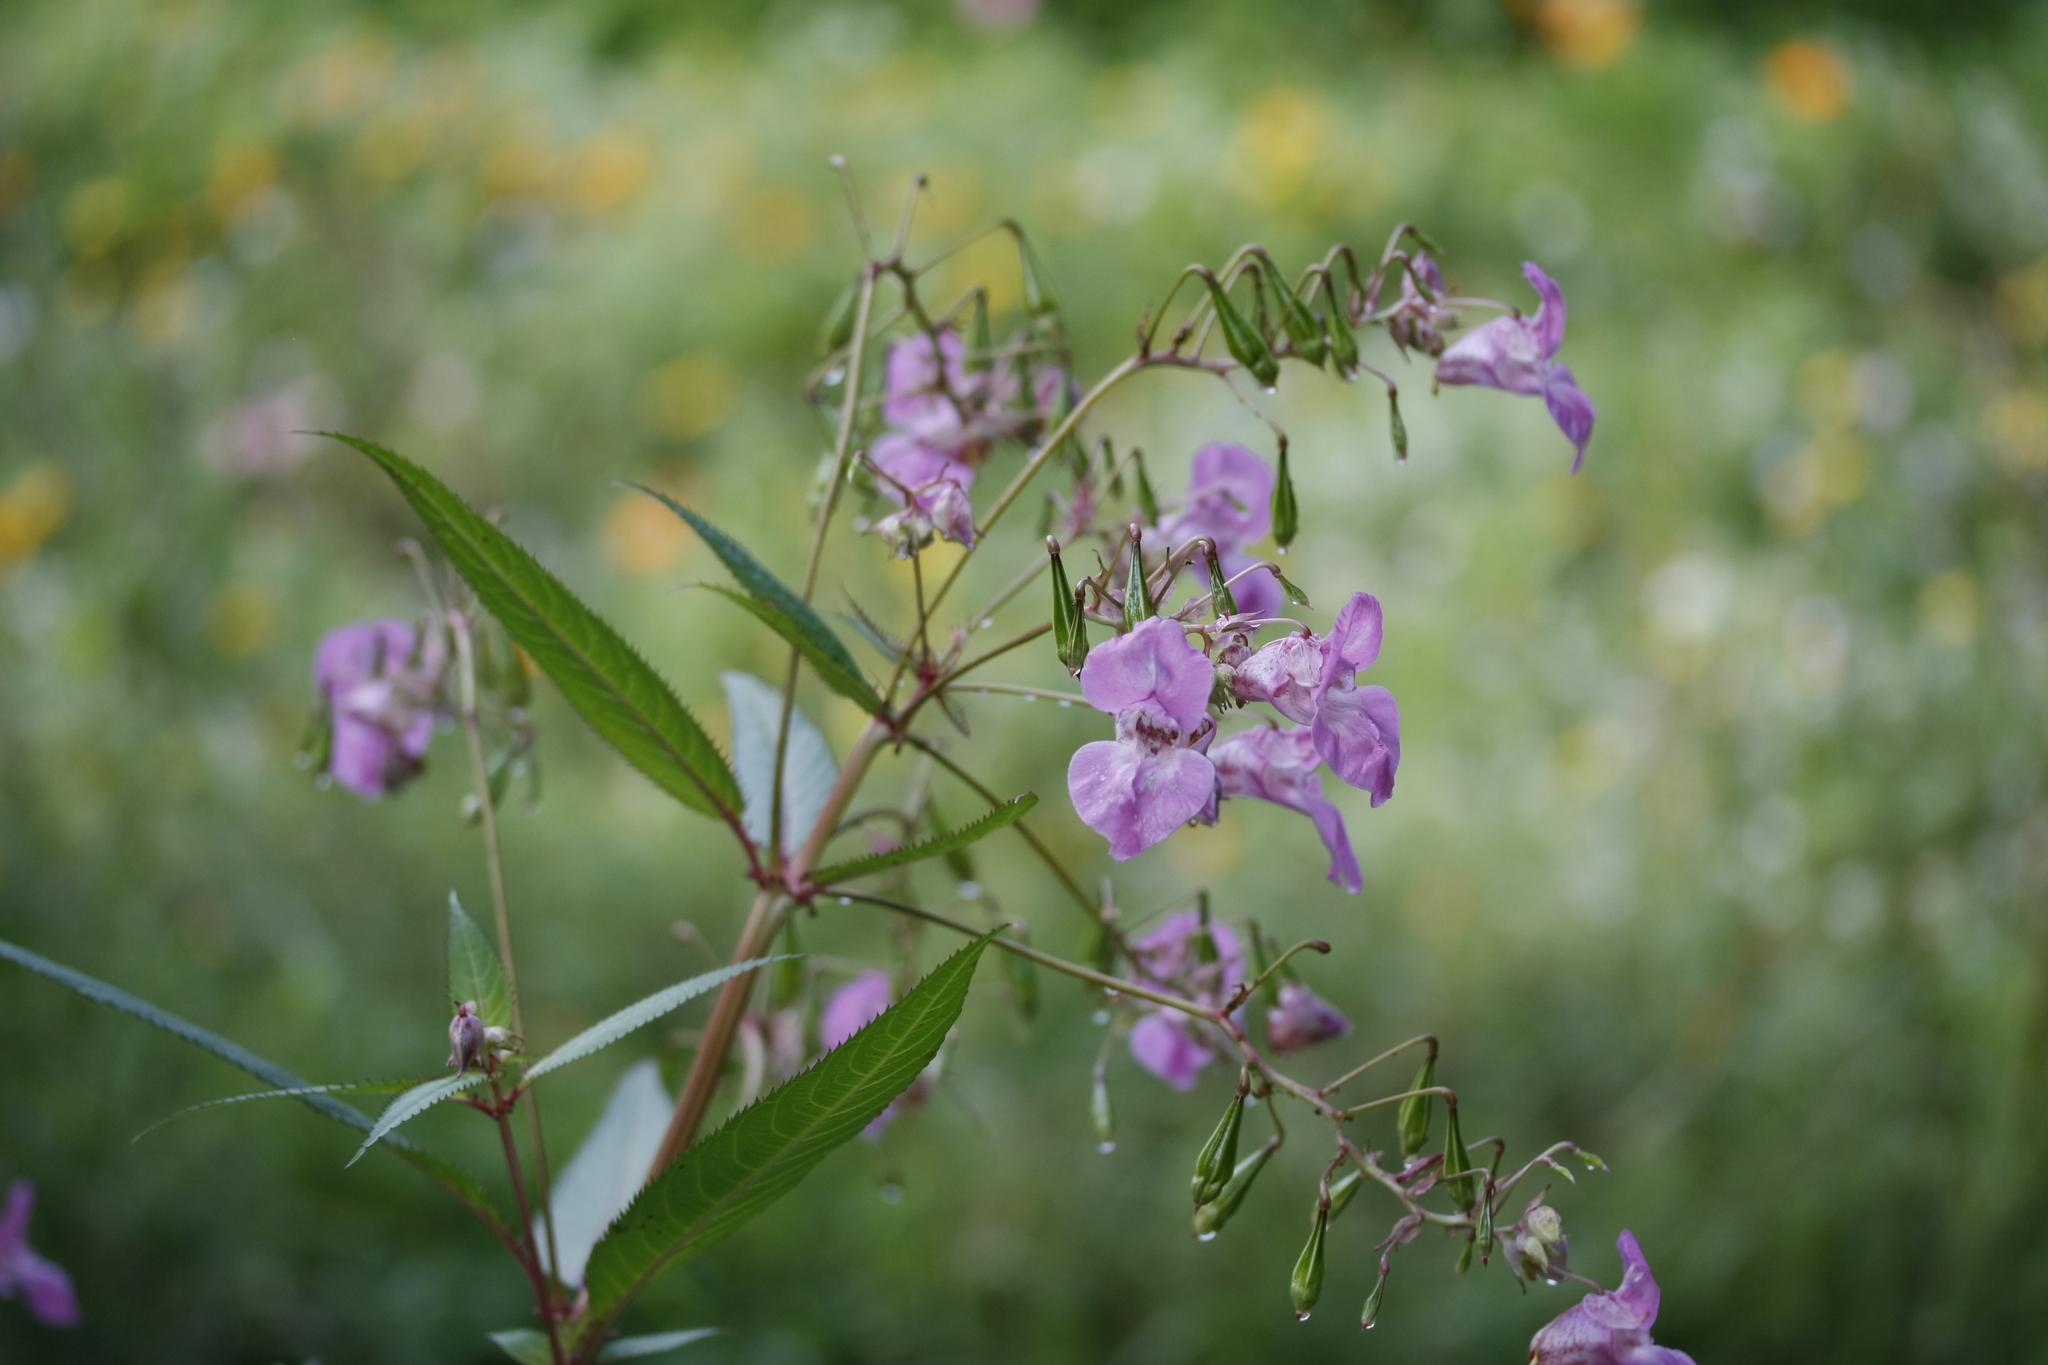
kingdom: Plantae
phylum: Tracheophyta
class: Magnoliopsida
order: Ericales
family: Balsaminaceae
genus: Impatiens
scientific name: Impatiens glandulifera
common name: Himalayan balsam
